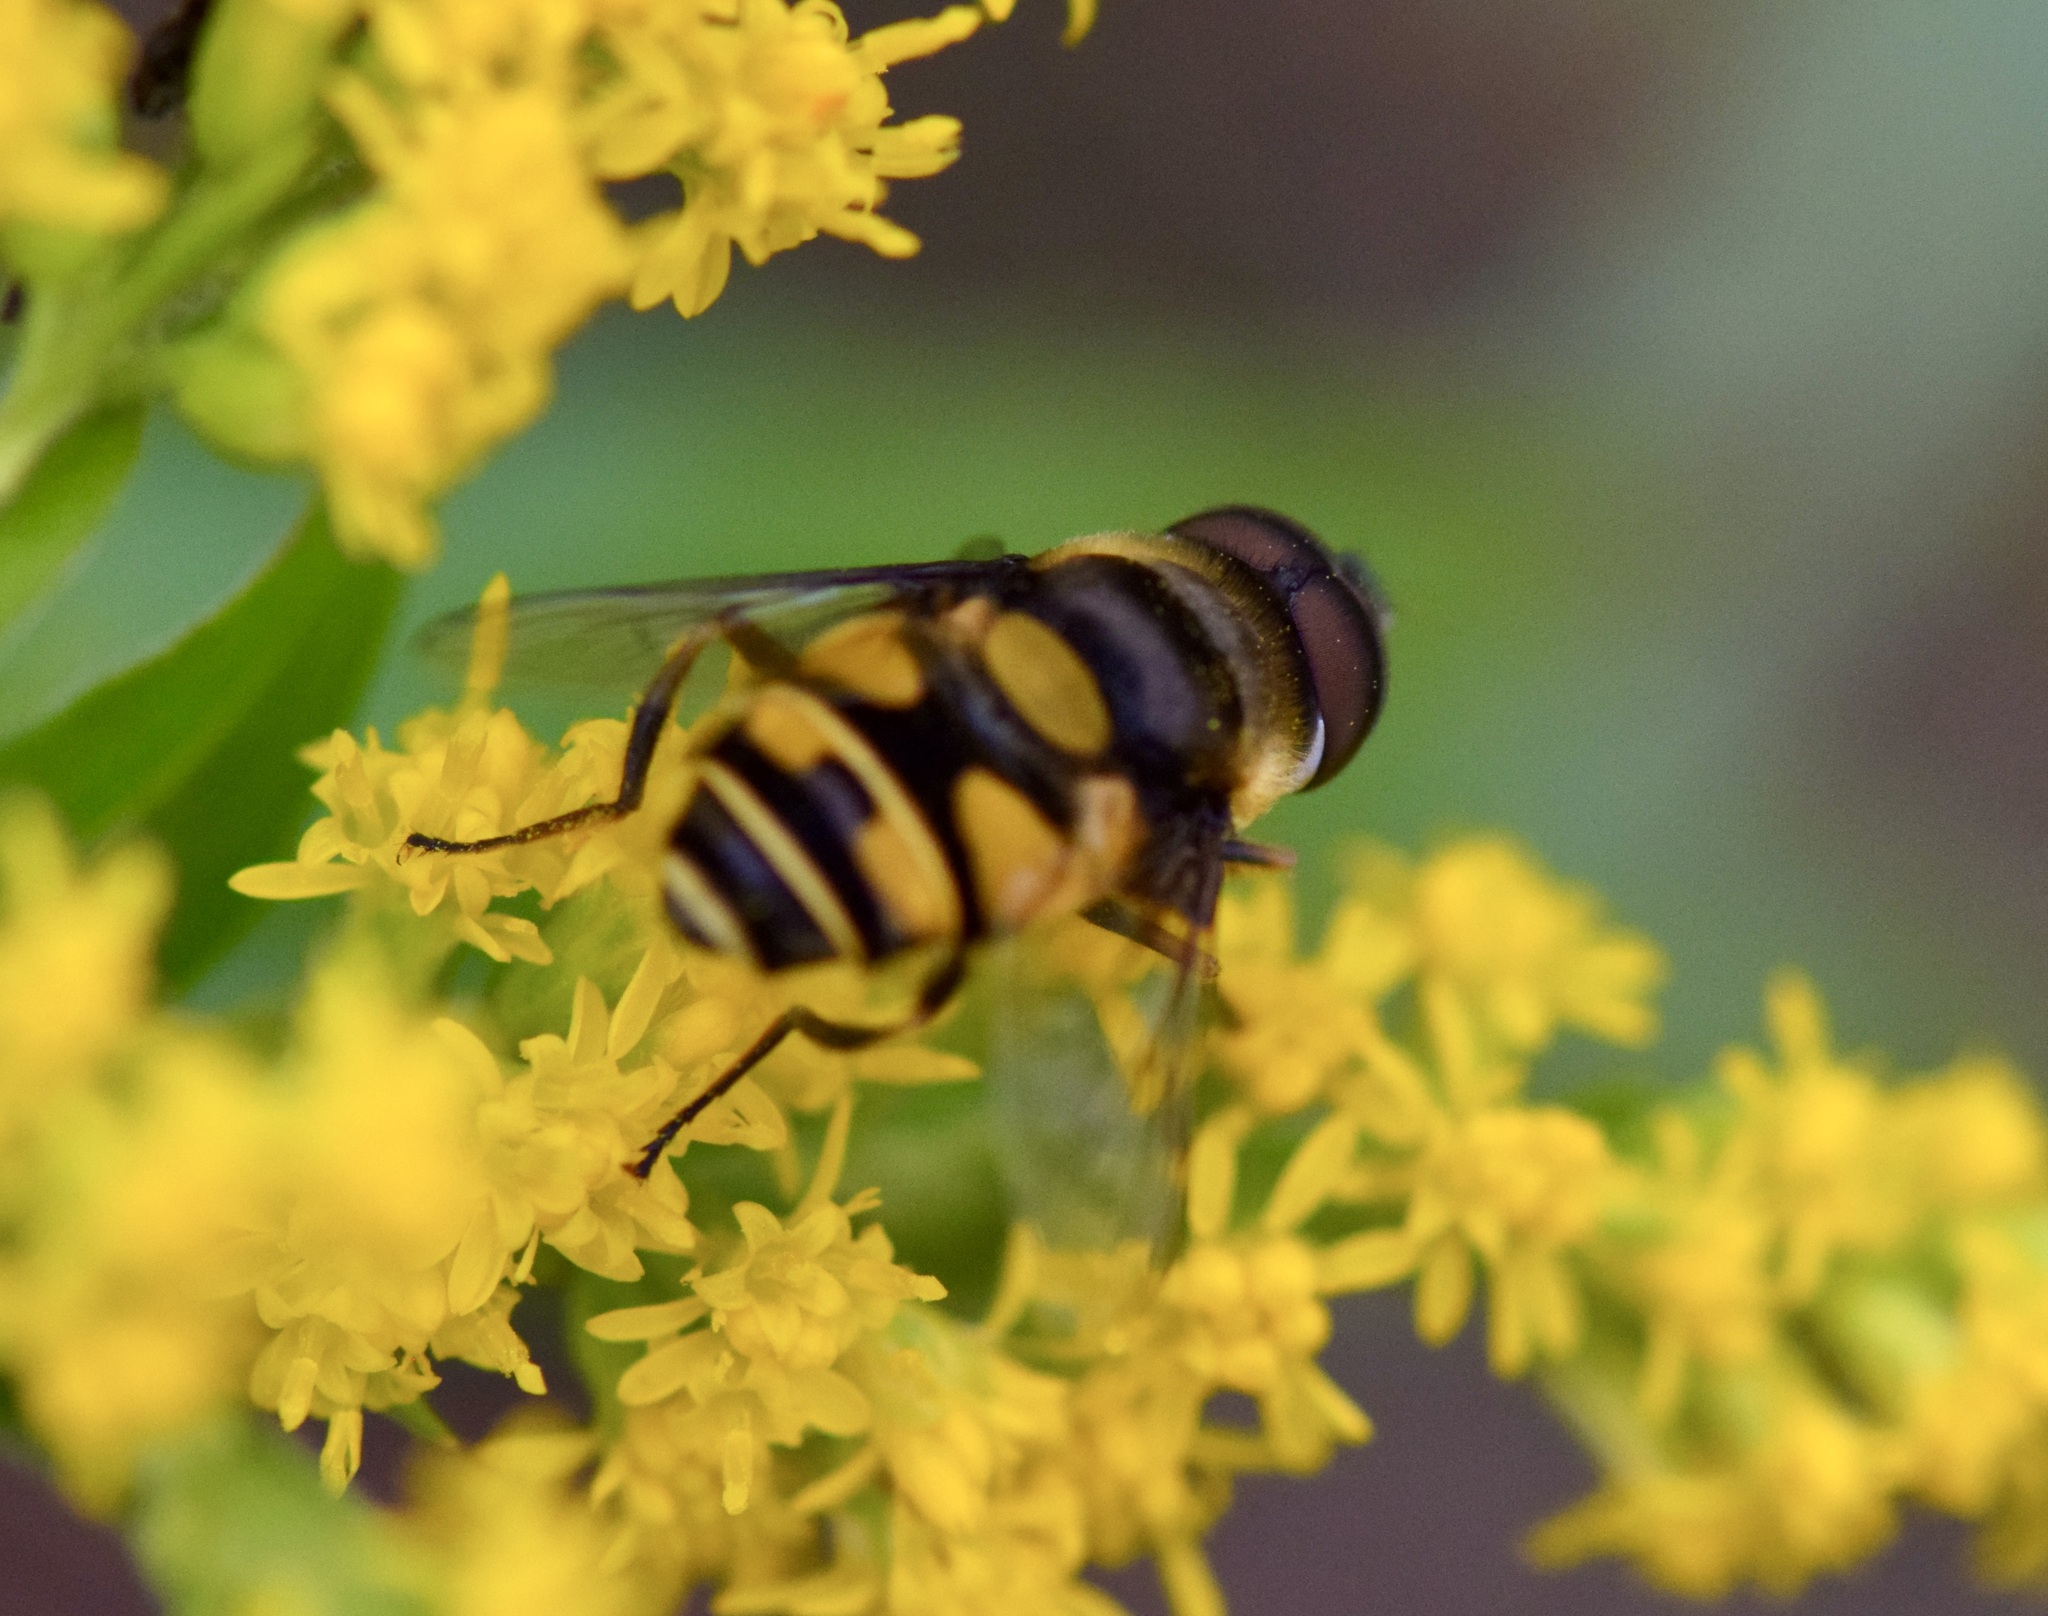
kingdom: Animalia
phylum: Arthropoda
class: Insecta
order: Diptera
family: Syrphidae
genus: Eristalis
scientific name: Eristalis transversa
